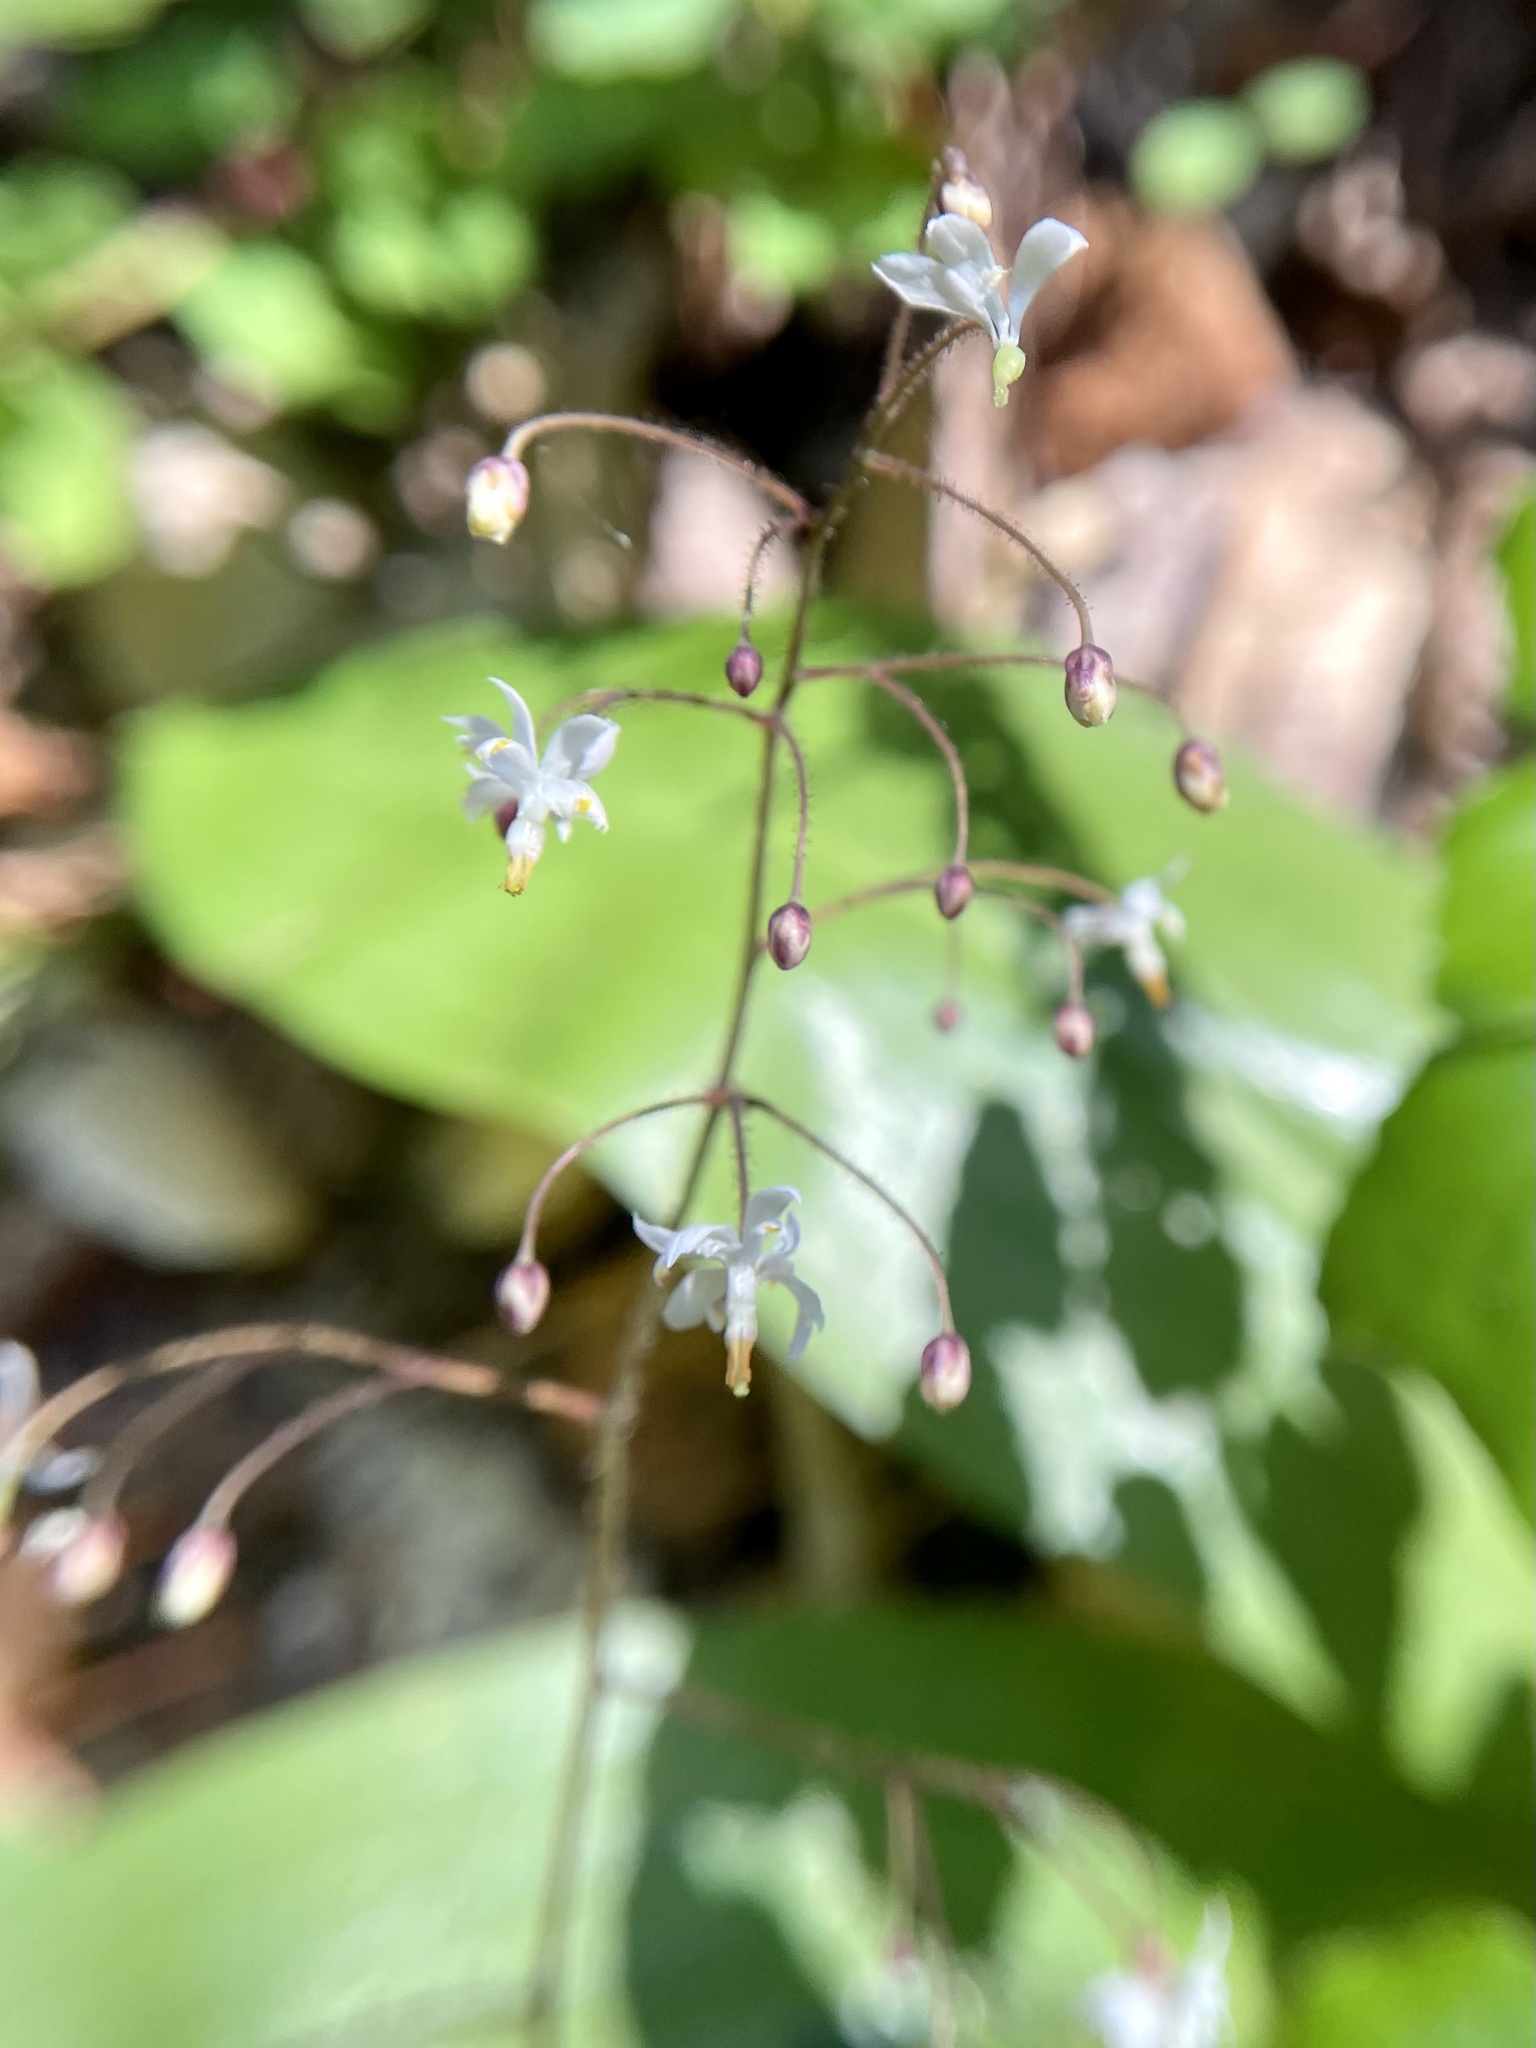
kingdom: Plantae
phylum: Tracheophyta
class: Magnoliopsida
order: Ranunculales
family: Berberidaceae
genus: Vancouveria
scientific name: Vancouveria planipetala
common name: Redwood-ivy
